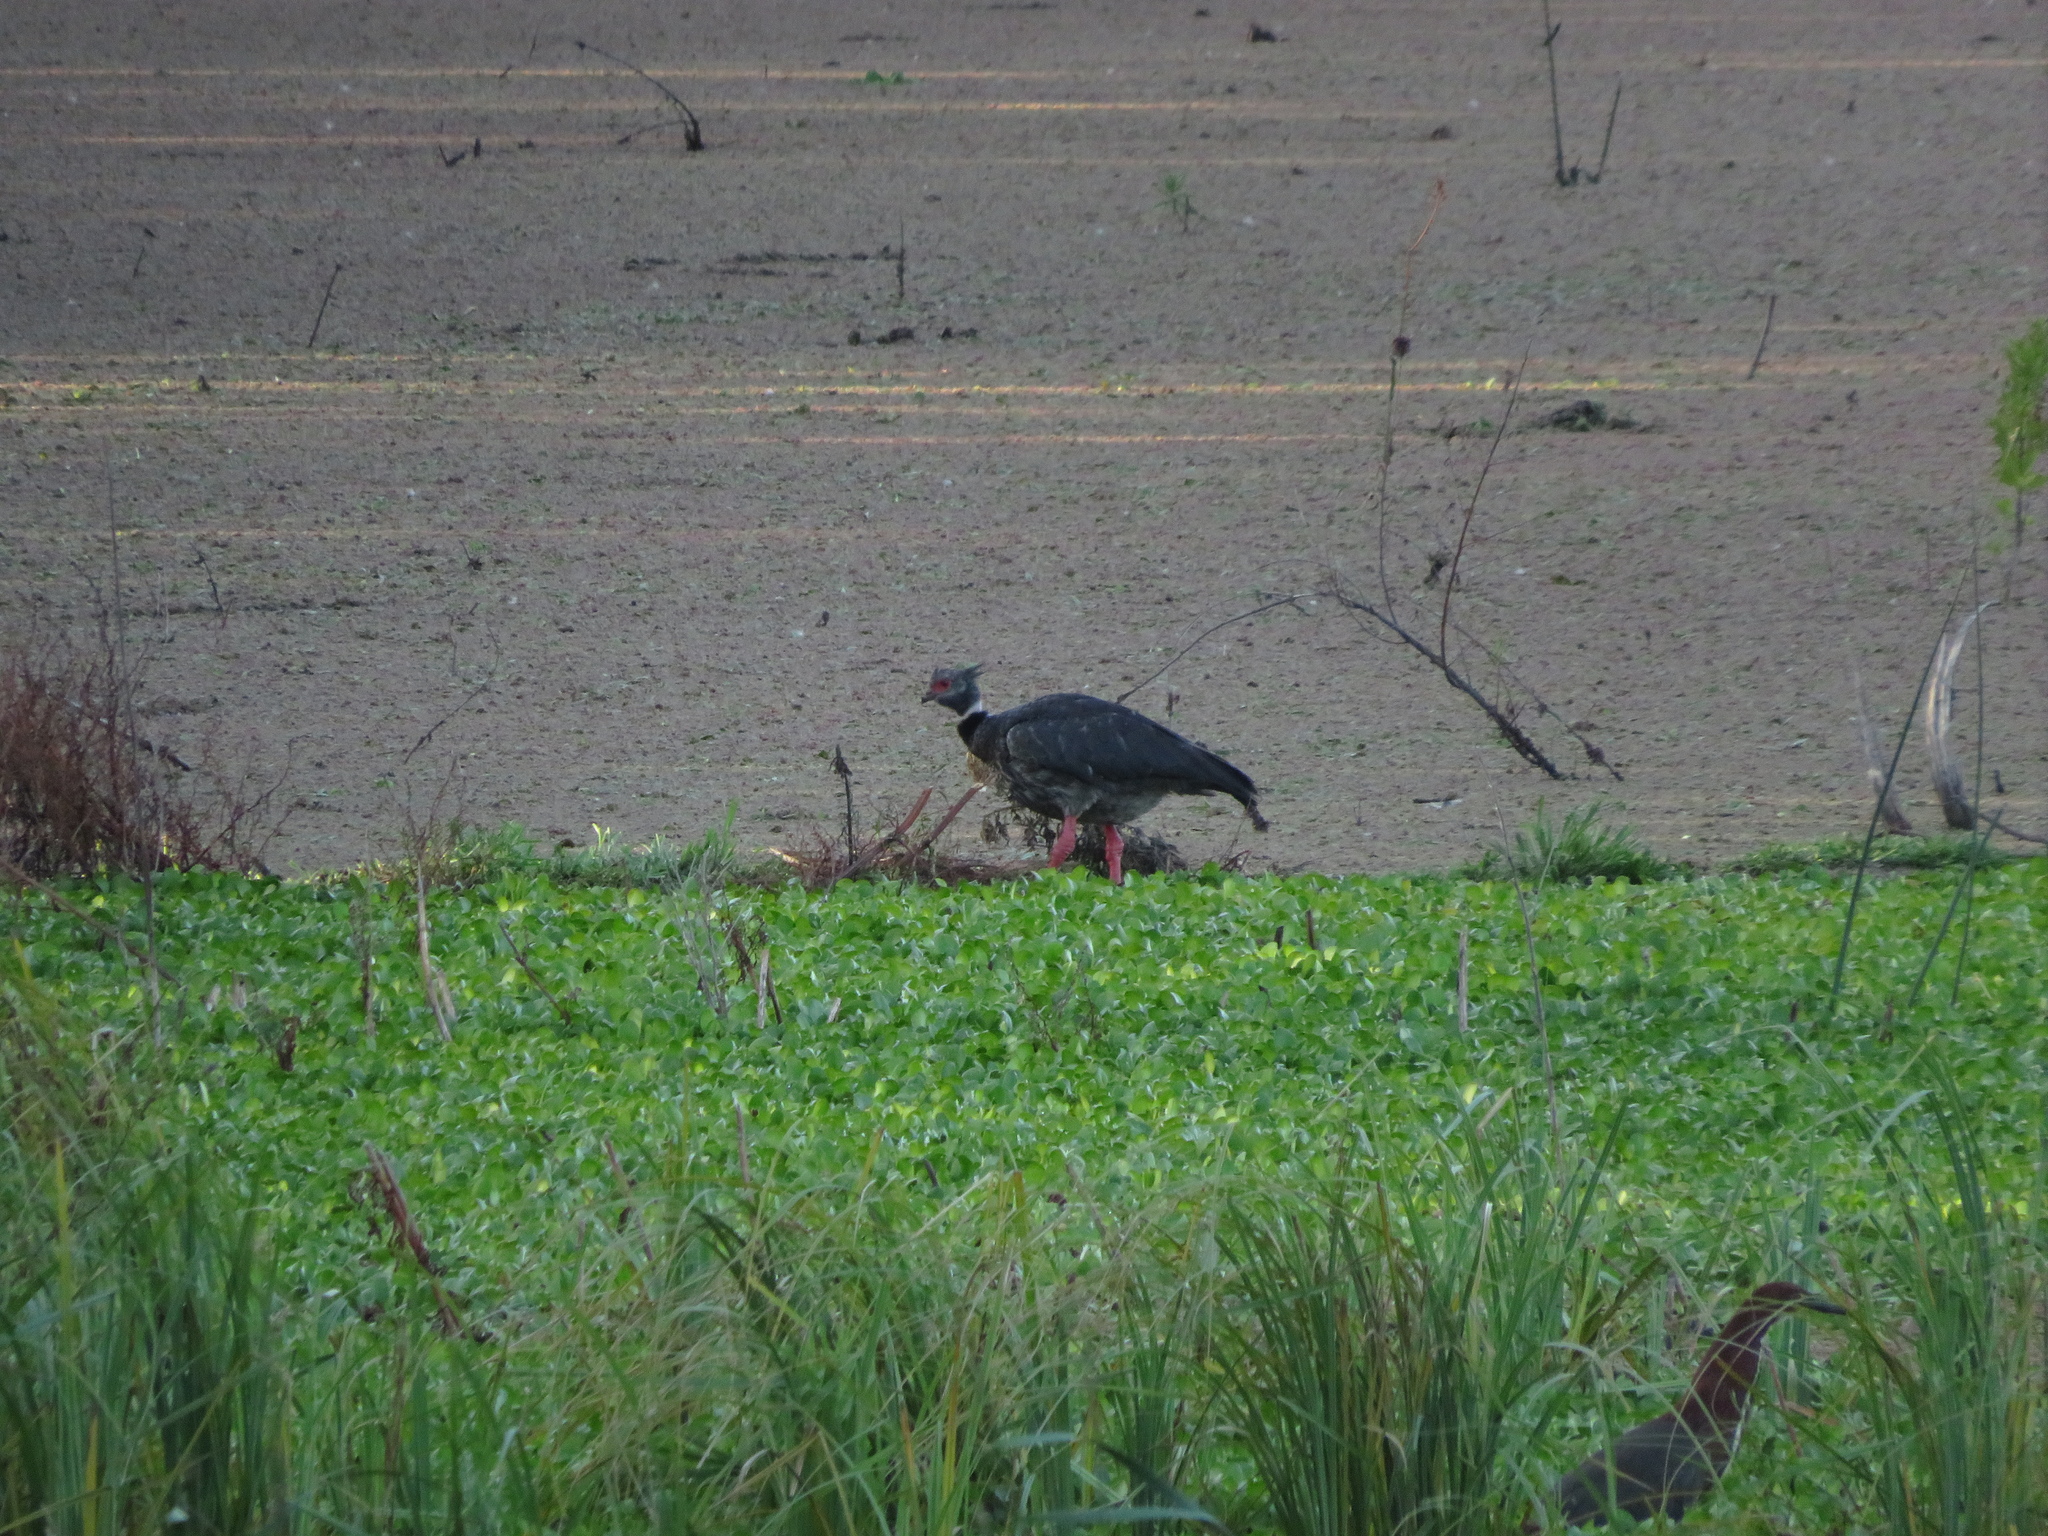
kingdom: Animalia
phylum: Chordata
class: Aves
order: Anseriformes
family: Anhimidae
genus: Chauna
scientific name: Chauna torquata
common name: Southern screamer
